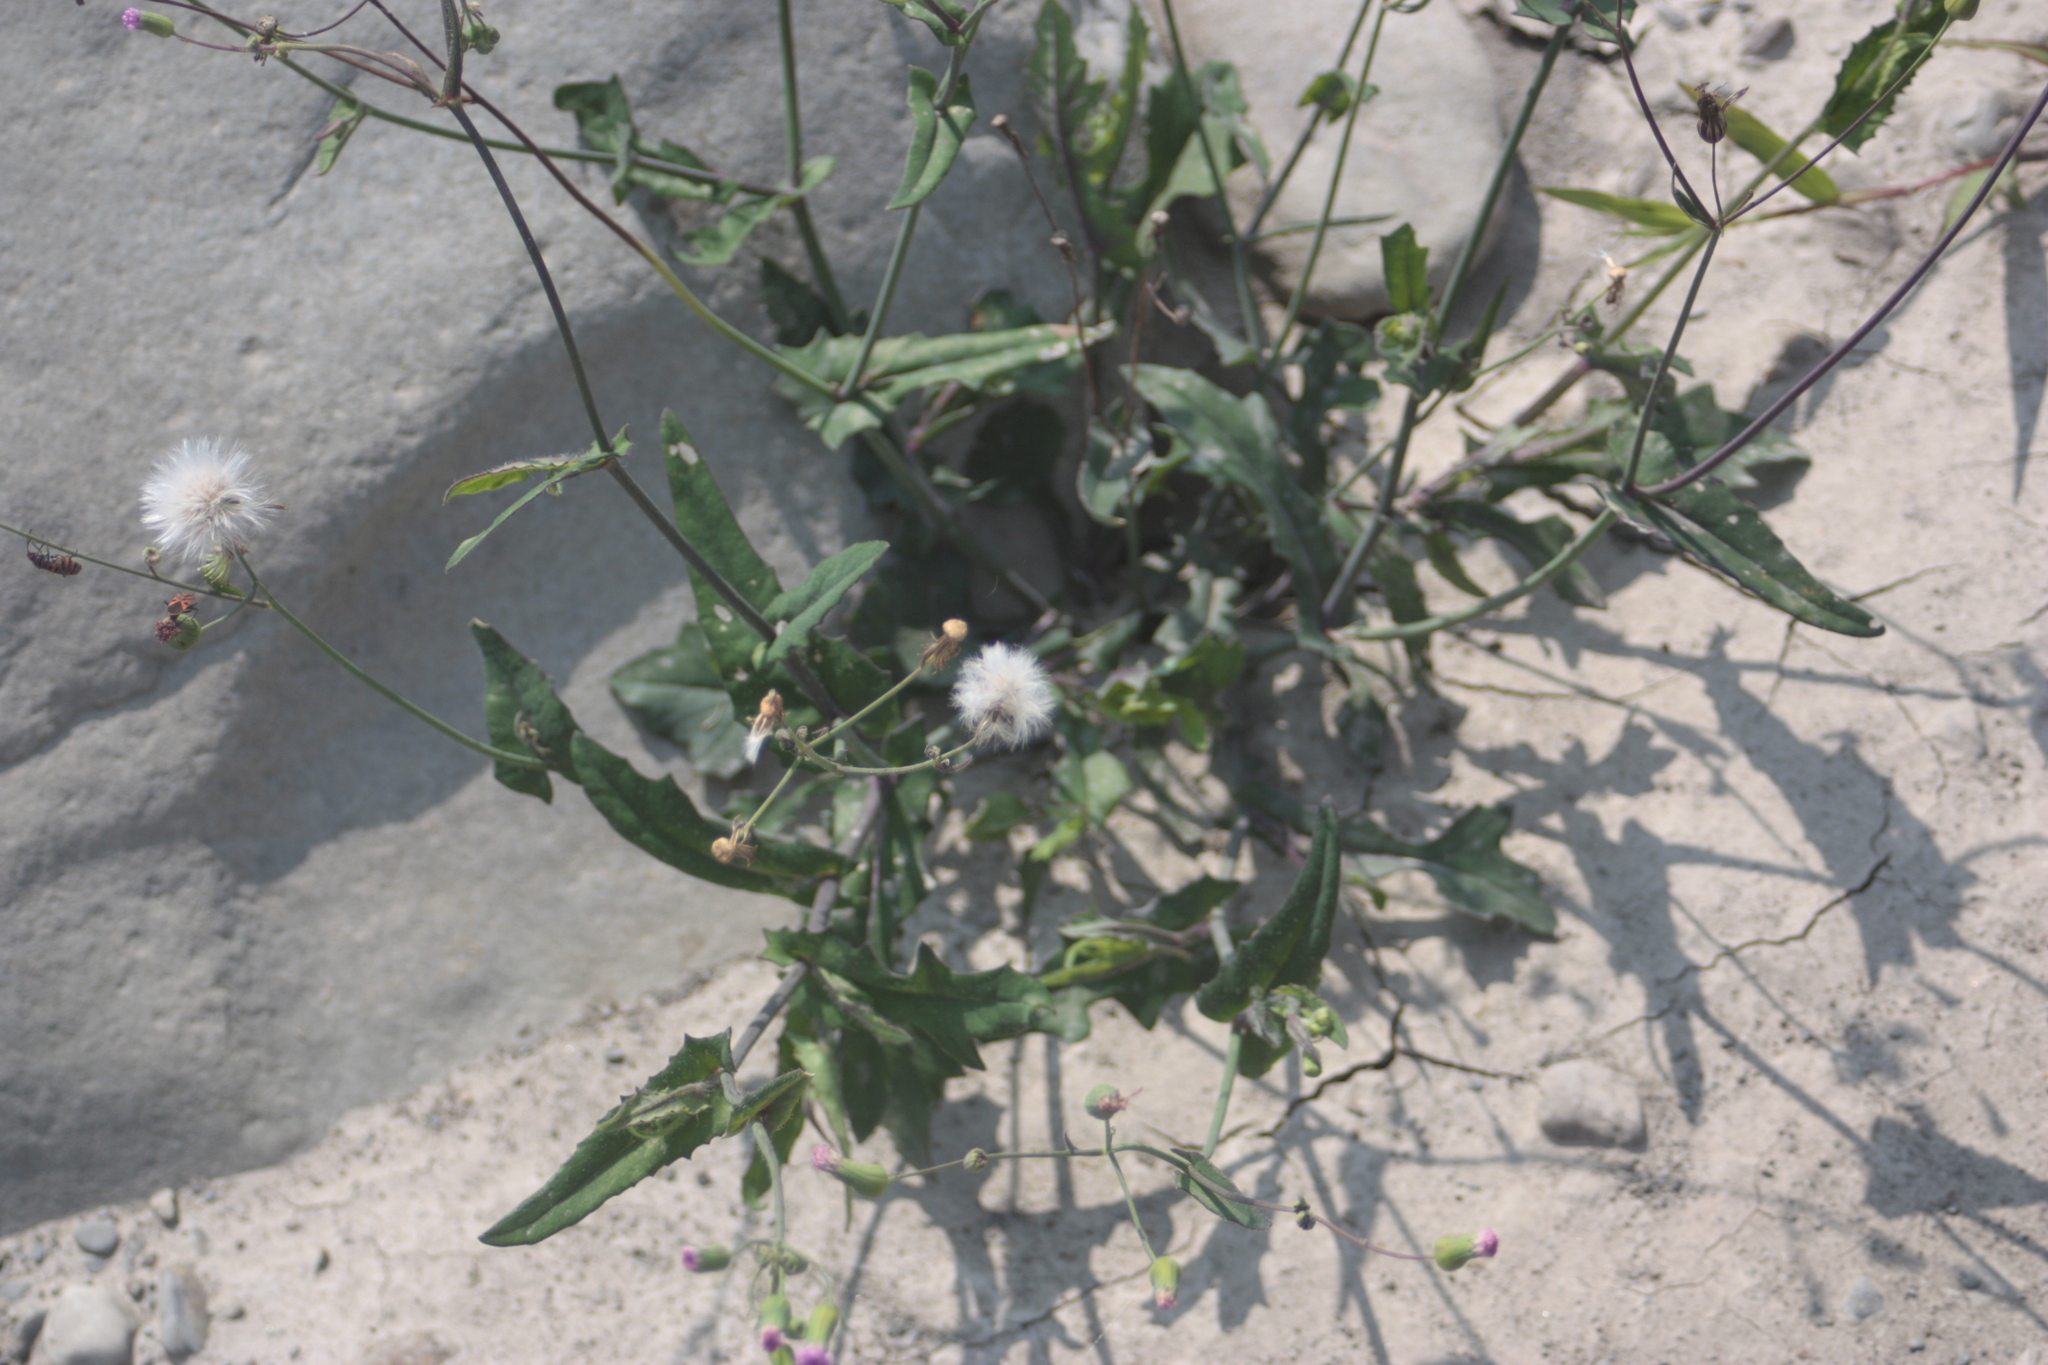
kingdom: Plantae
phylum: Tracheophyta
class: Magnoliopsida
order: Asterales
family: Asteraceae
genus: Emilia
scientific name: Emilia javanica
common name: Tassel-flower
